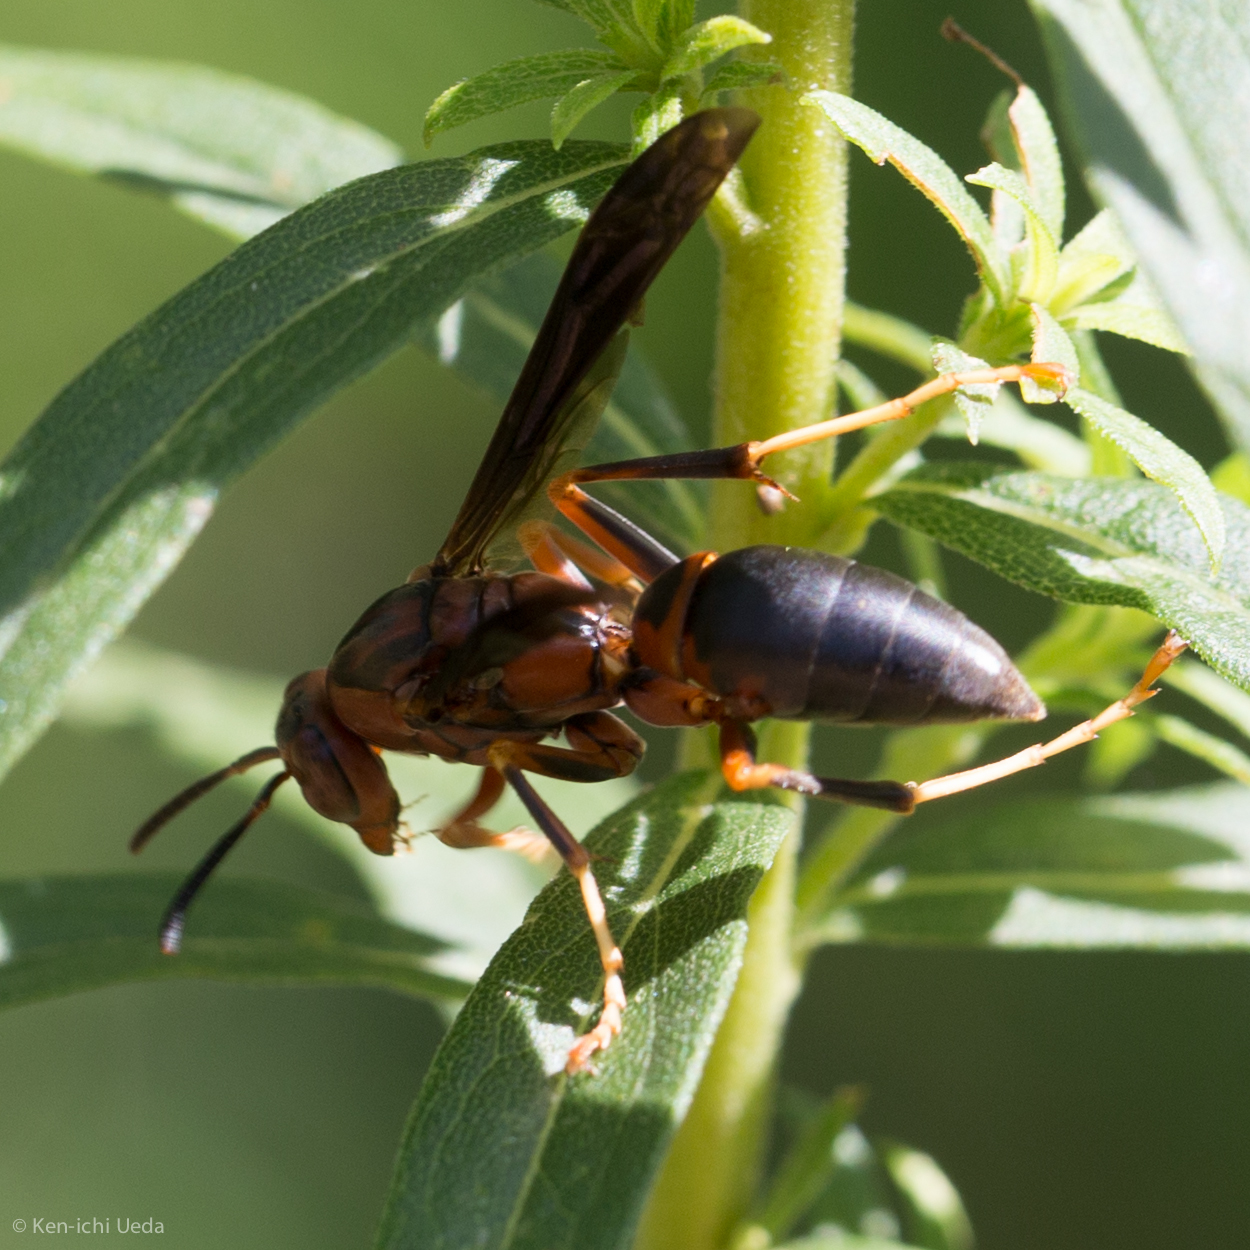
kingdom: Animalia
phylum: Arthropoda
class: Insecta
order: Hymenoptera
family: Eumenidae
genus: Polistes
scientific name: Polistes metricus
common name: Metric paper wasp
